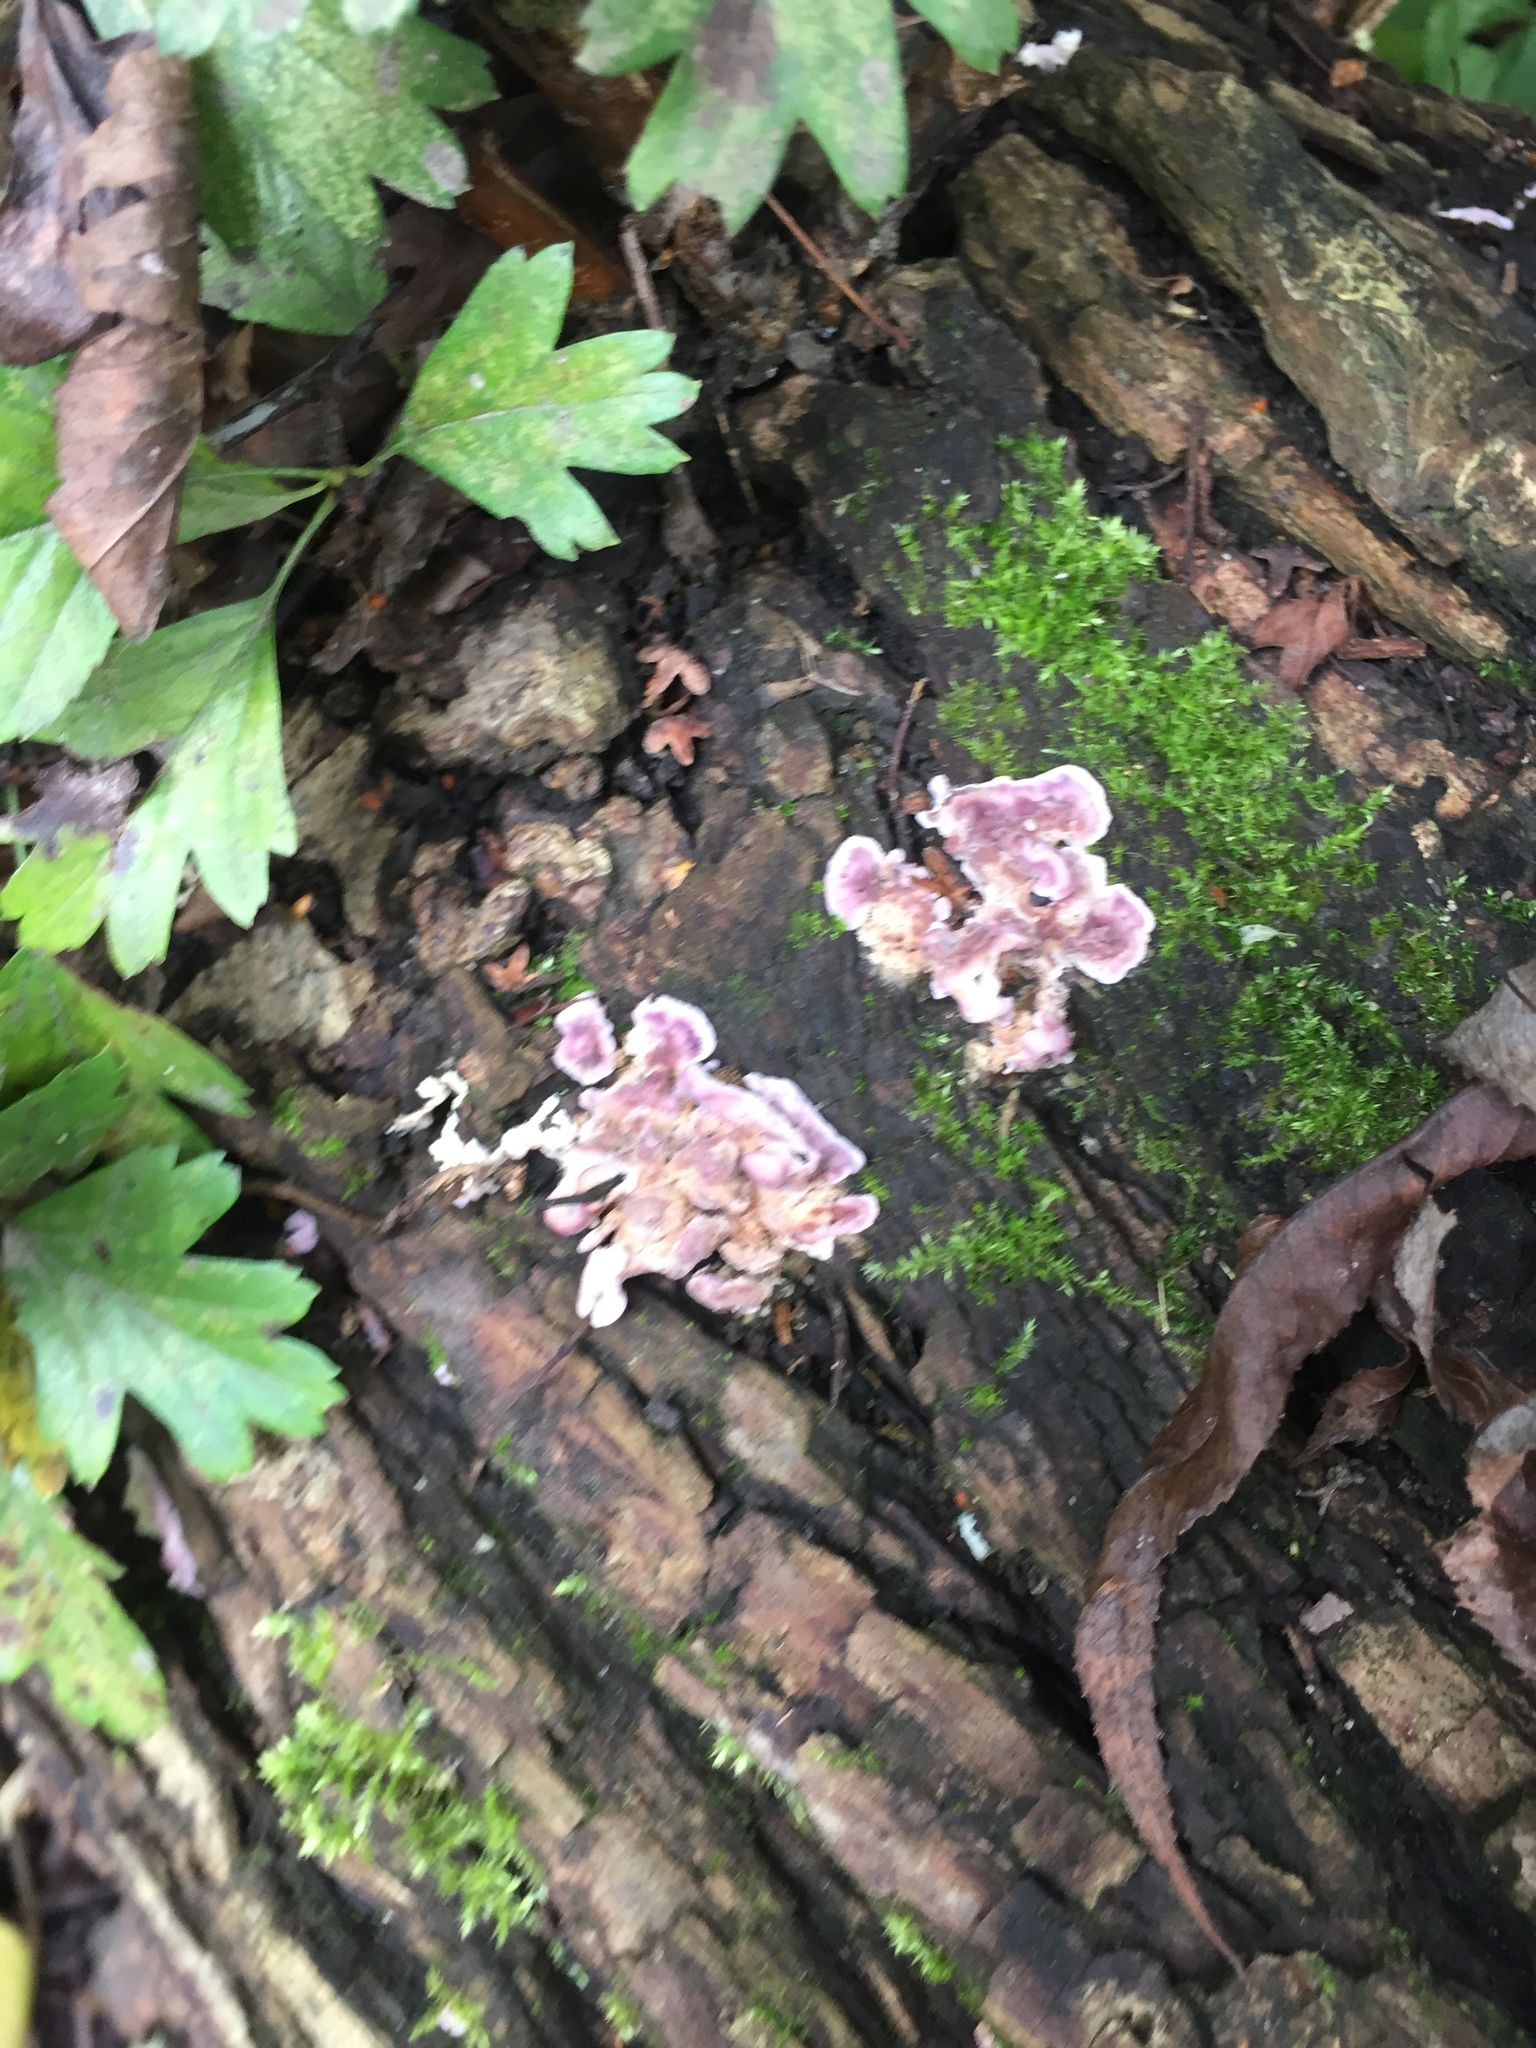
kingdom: Fungi
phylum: Basidiomycota
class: Agaricomycetes
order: Agaricales
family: Cyphellaceae
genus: Chondrostereum
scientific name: Chondrostereum purpureum
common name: Silver leaf disease
